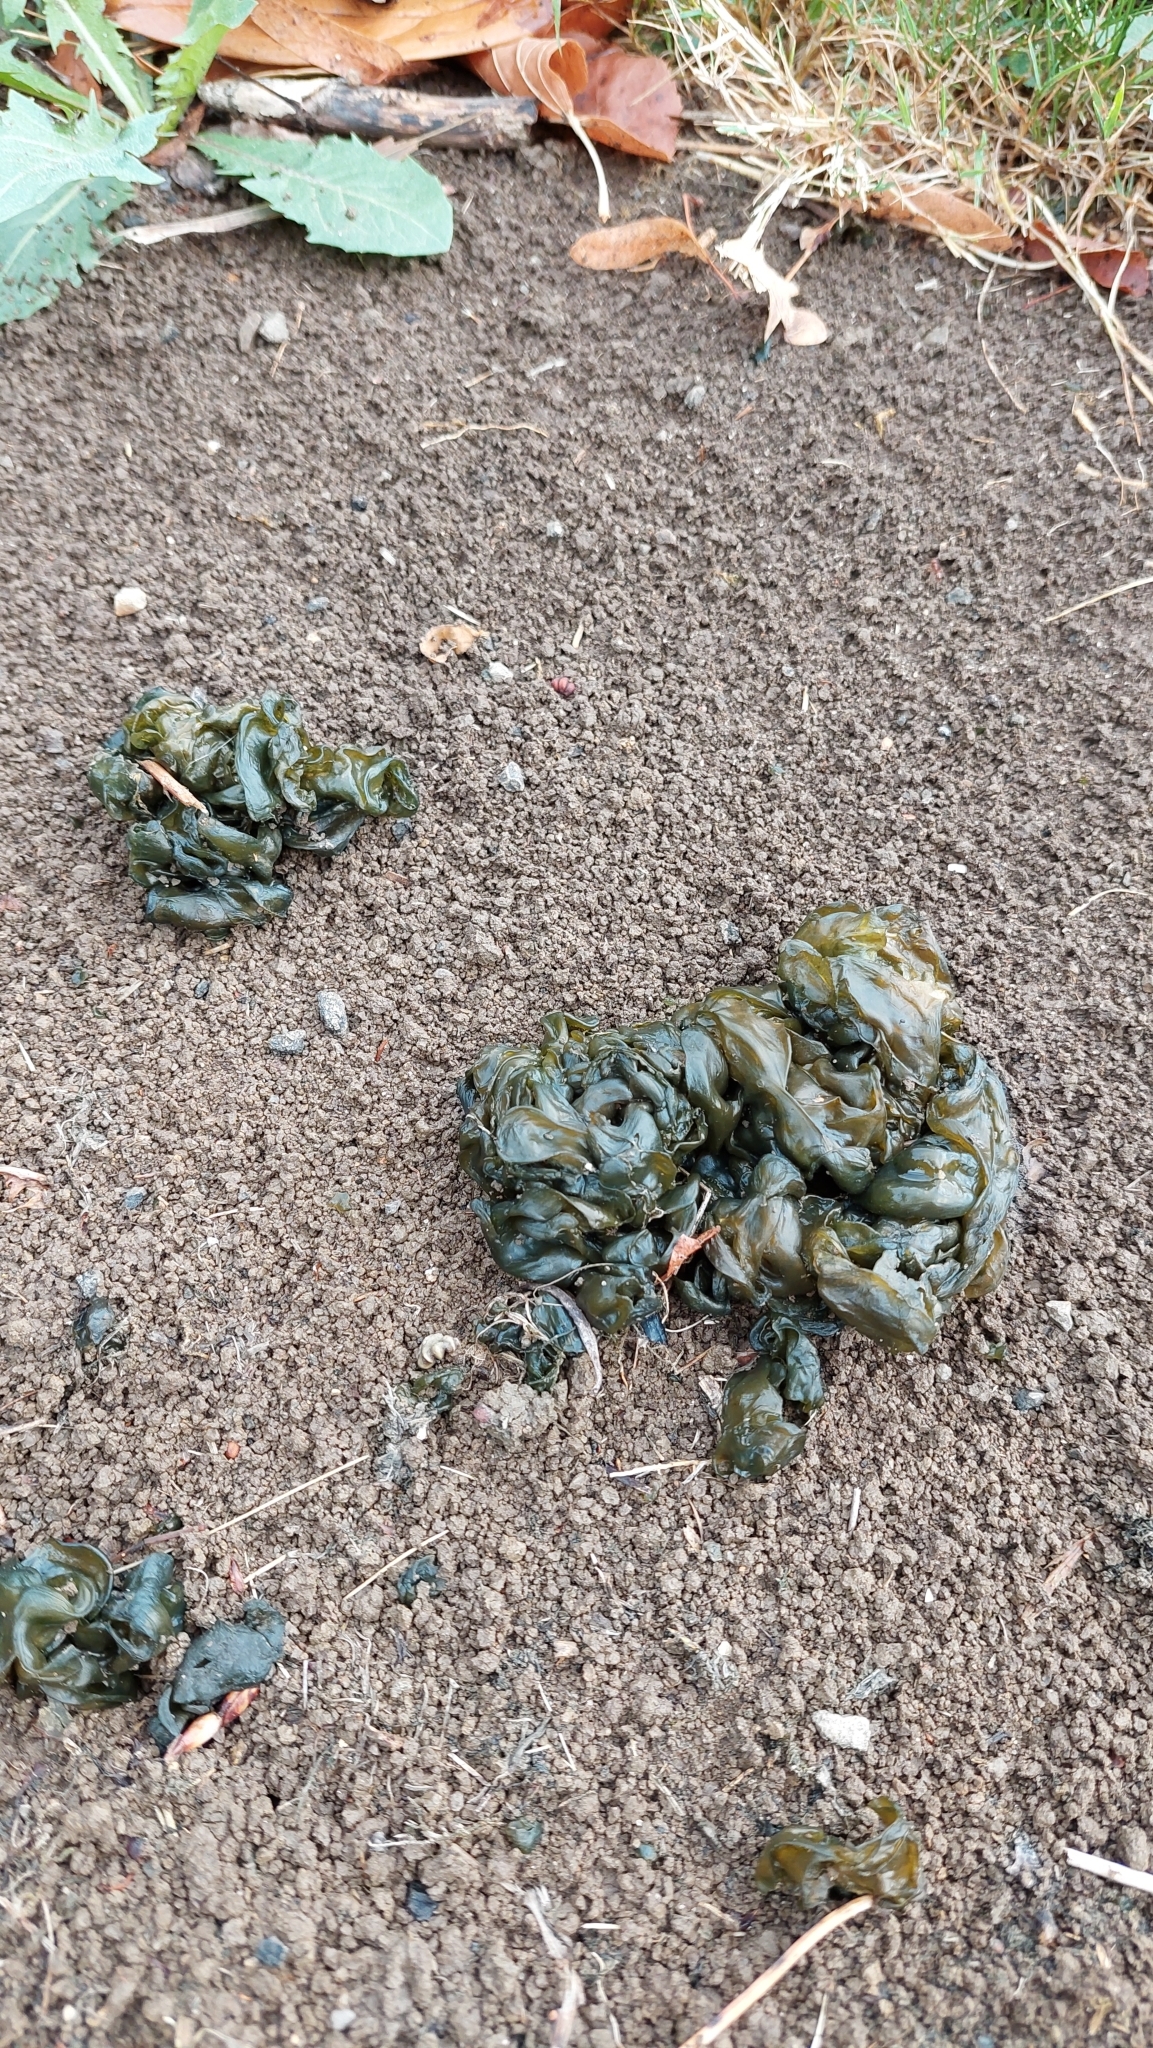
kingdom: Bacteria
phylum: Cyanobacteria
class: Cyanobacteriia
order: Cyanobacteriales
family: Nostocaceae
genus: Nostoc
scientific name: Nostoc commune
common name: Star jelly
